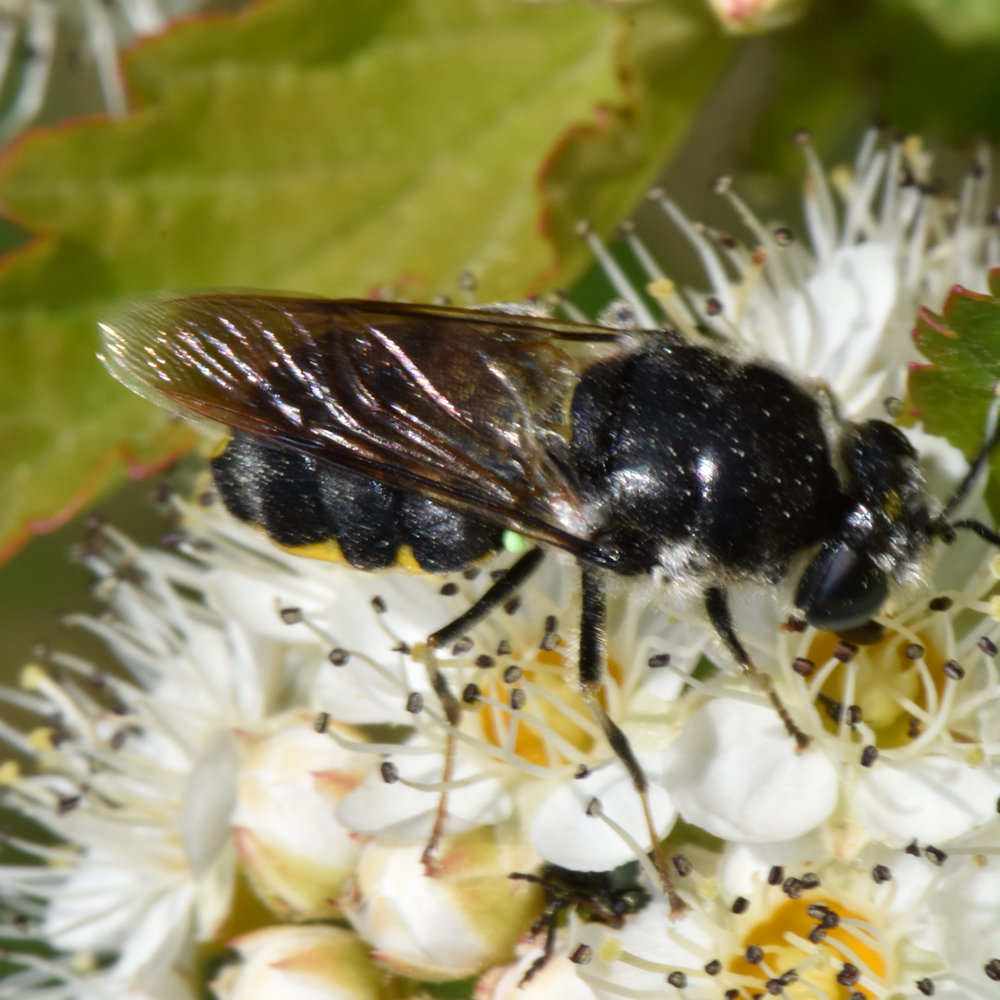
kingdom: Animalia
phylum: Arthropoda
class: Insecta
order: Diptera
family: Stratiomyidae
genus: Stratiomys
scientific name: Stratiomys meigenii
